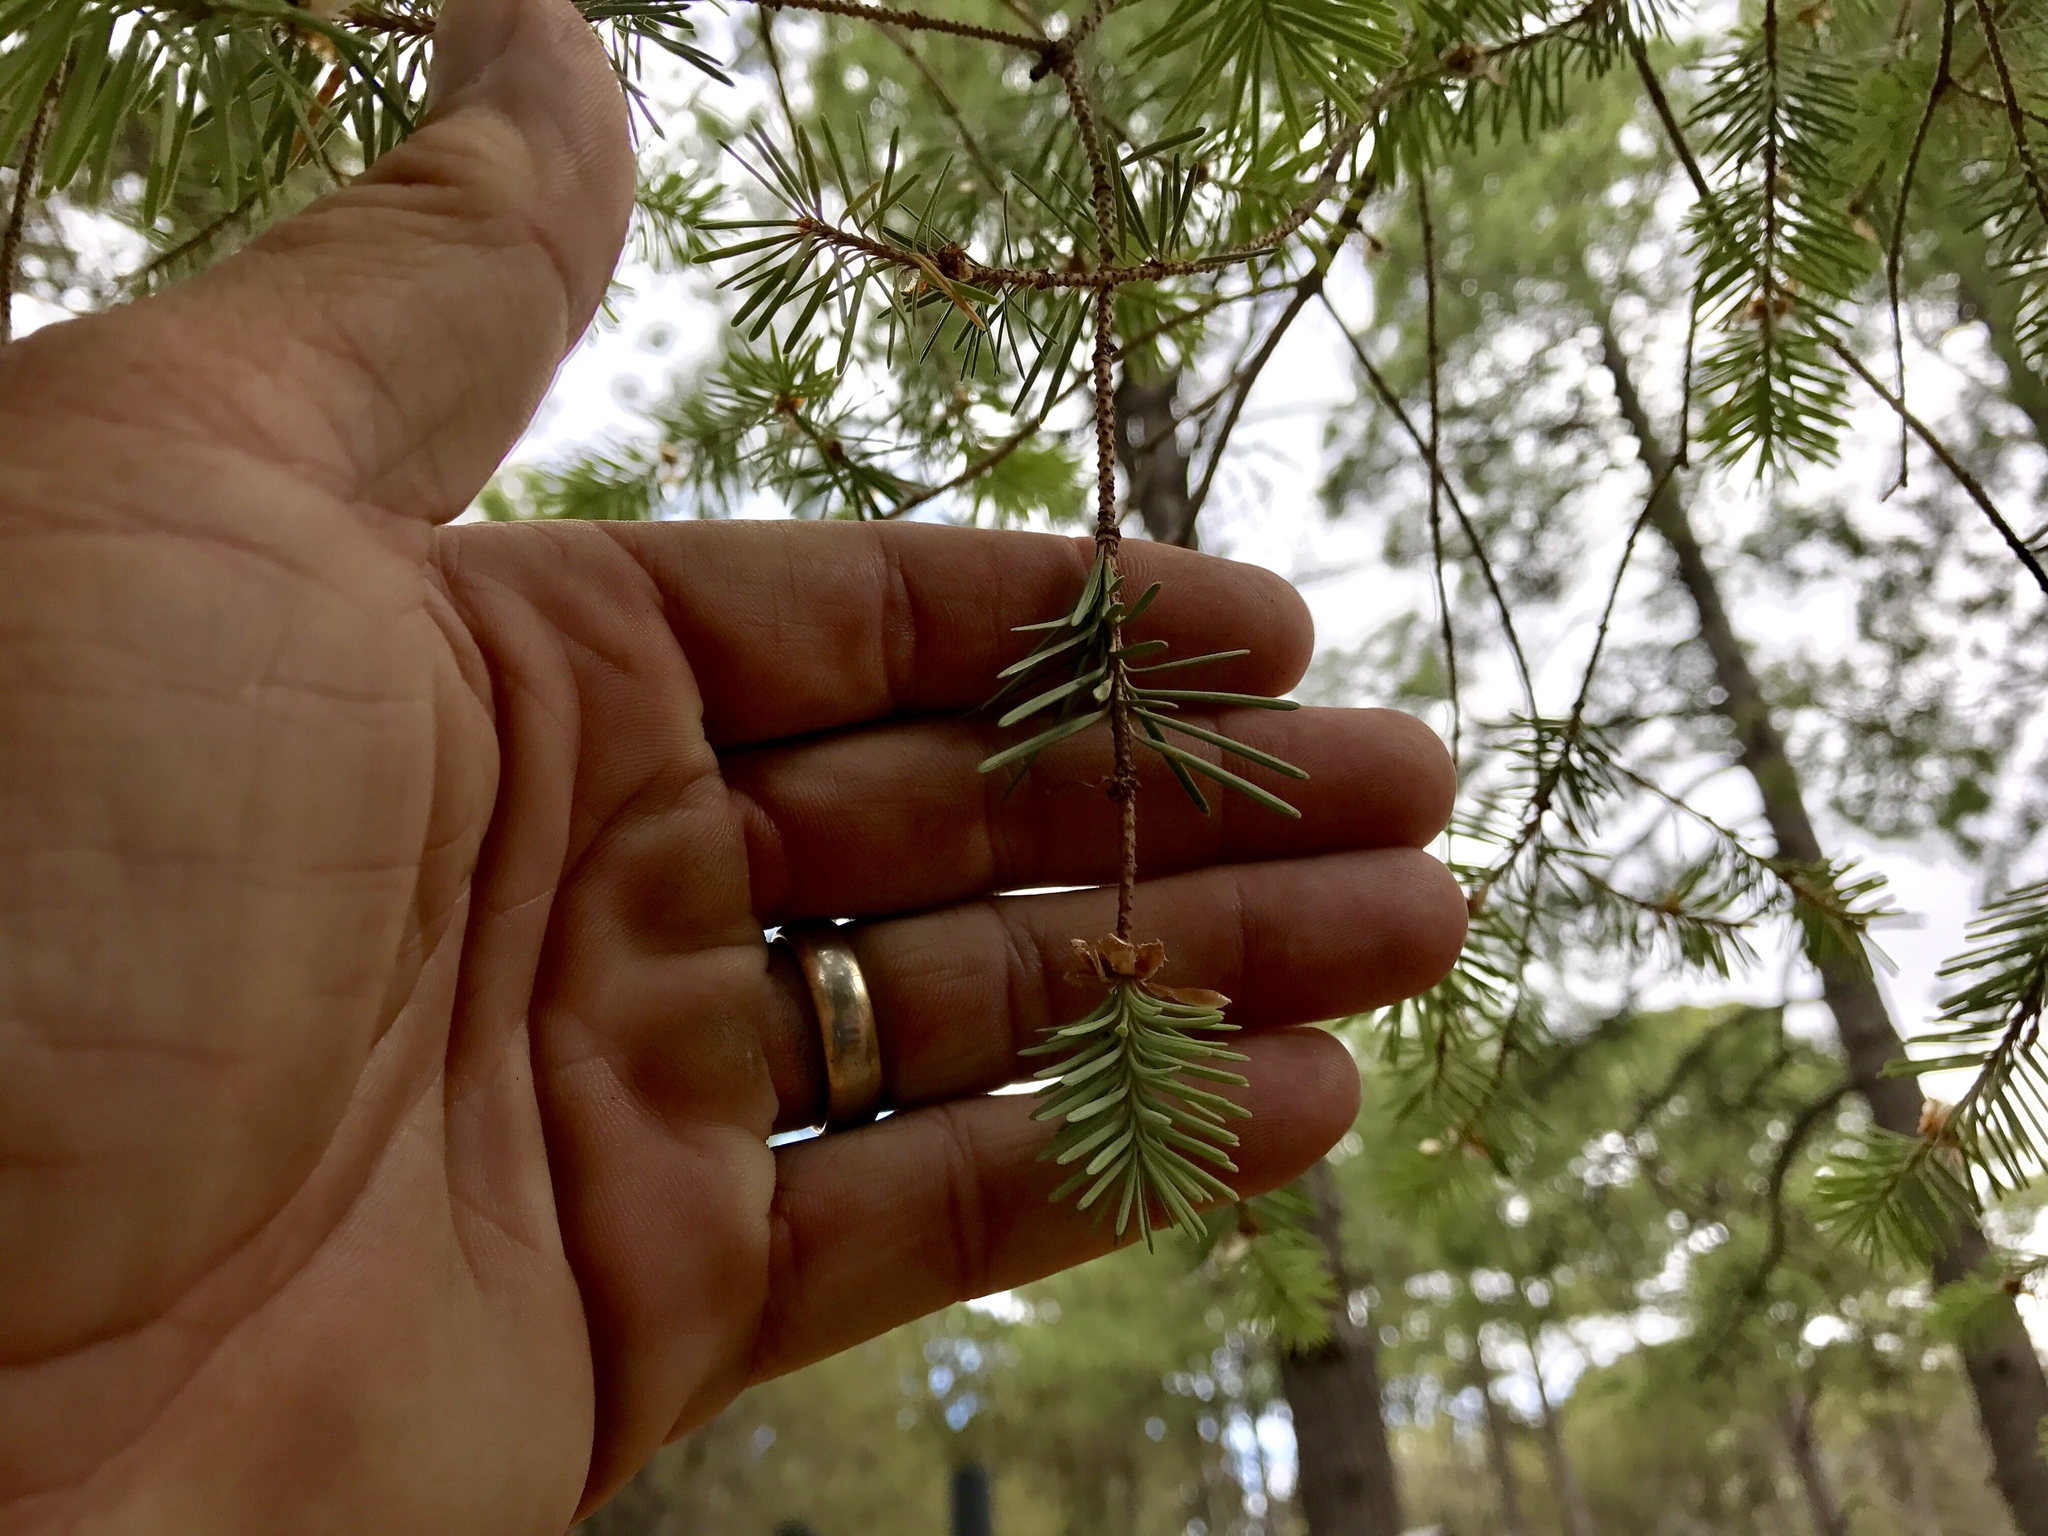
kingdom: Plantae
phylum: Tracheophyta
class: Pinopsida
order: Pinales
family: Pinaceae
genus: Pseudotsuga
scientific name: Pseudotsuga menziesii
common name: Douglas fir
